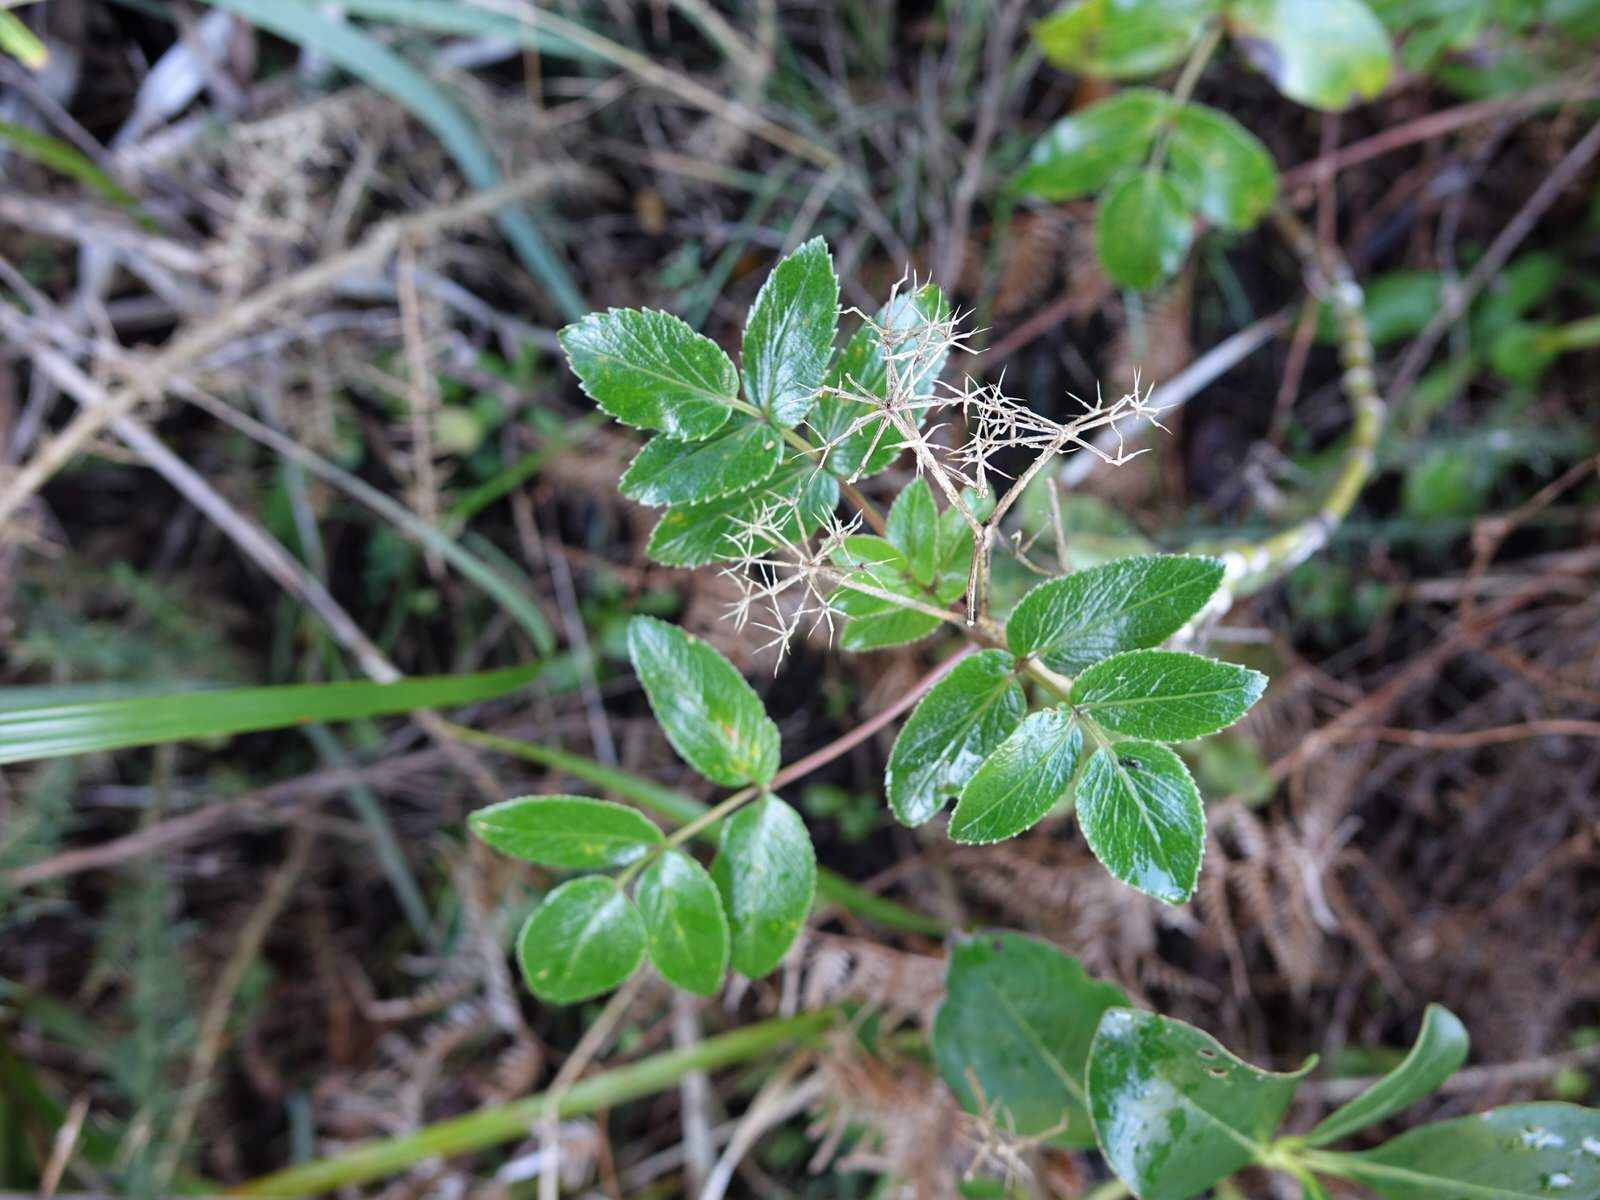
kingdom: Plantae
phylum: Tracheophyta
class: Magnoliopsida
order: Apiales
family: Apiaceae
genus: Scandia
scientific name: Scandia rosifolia
